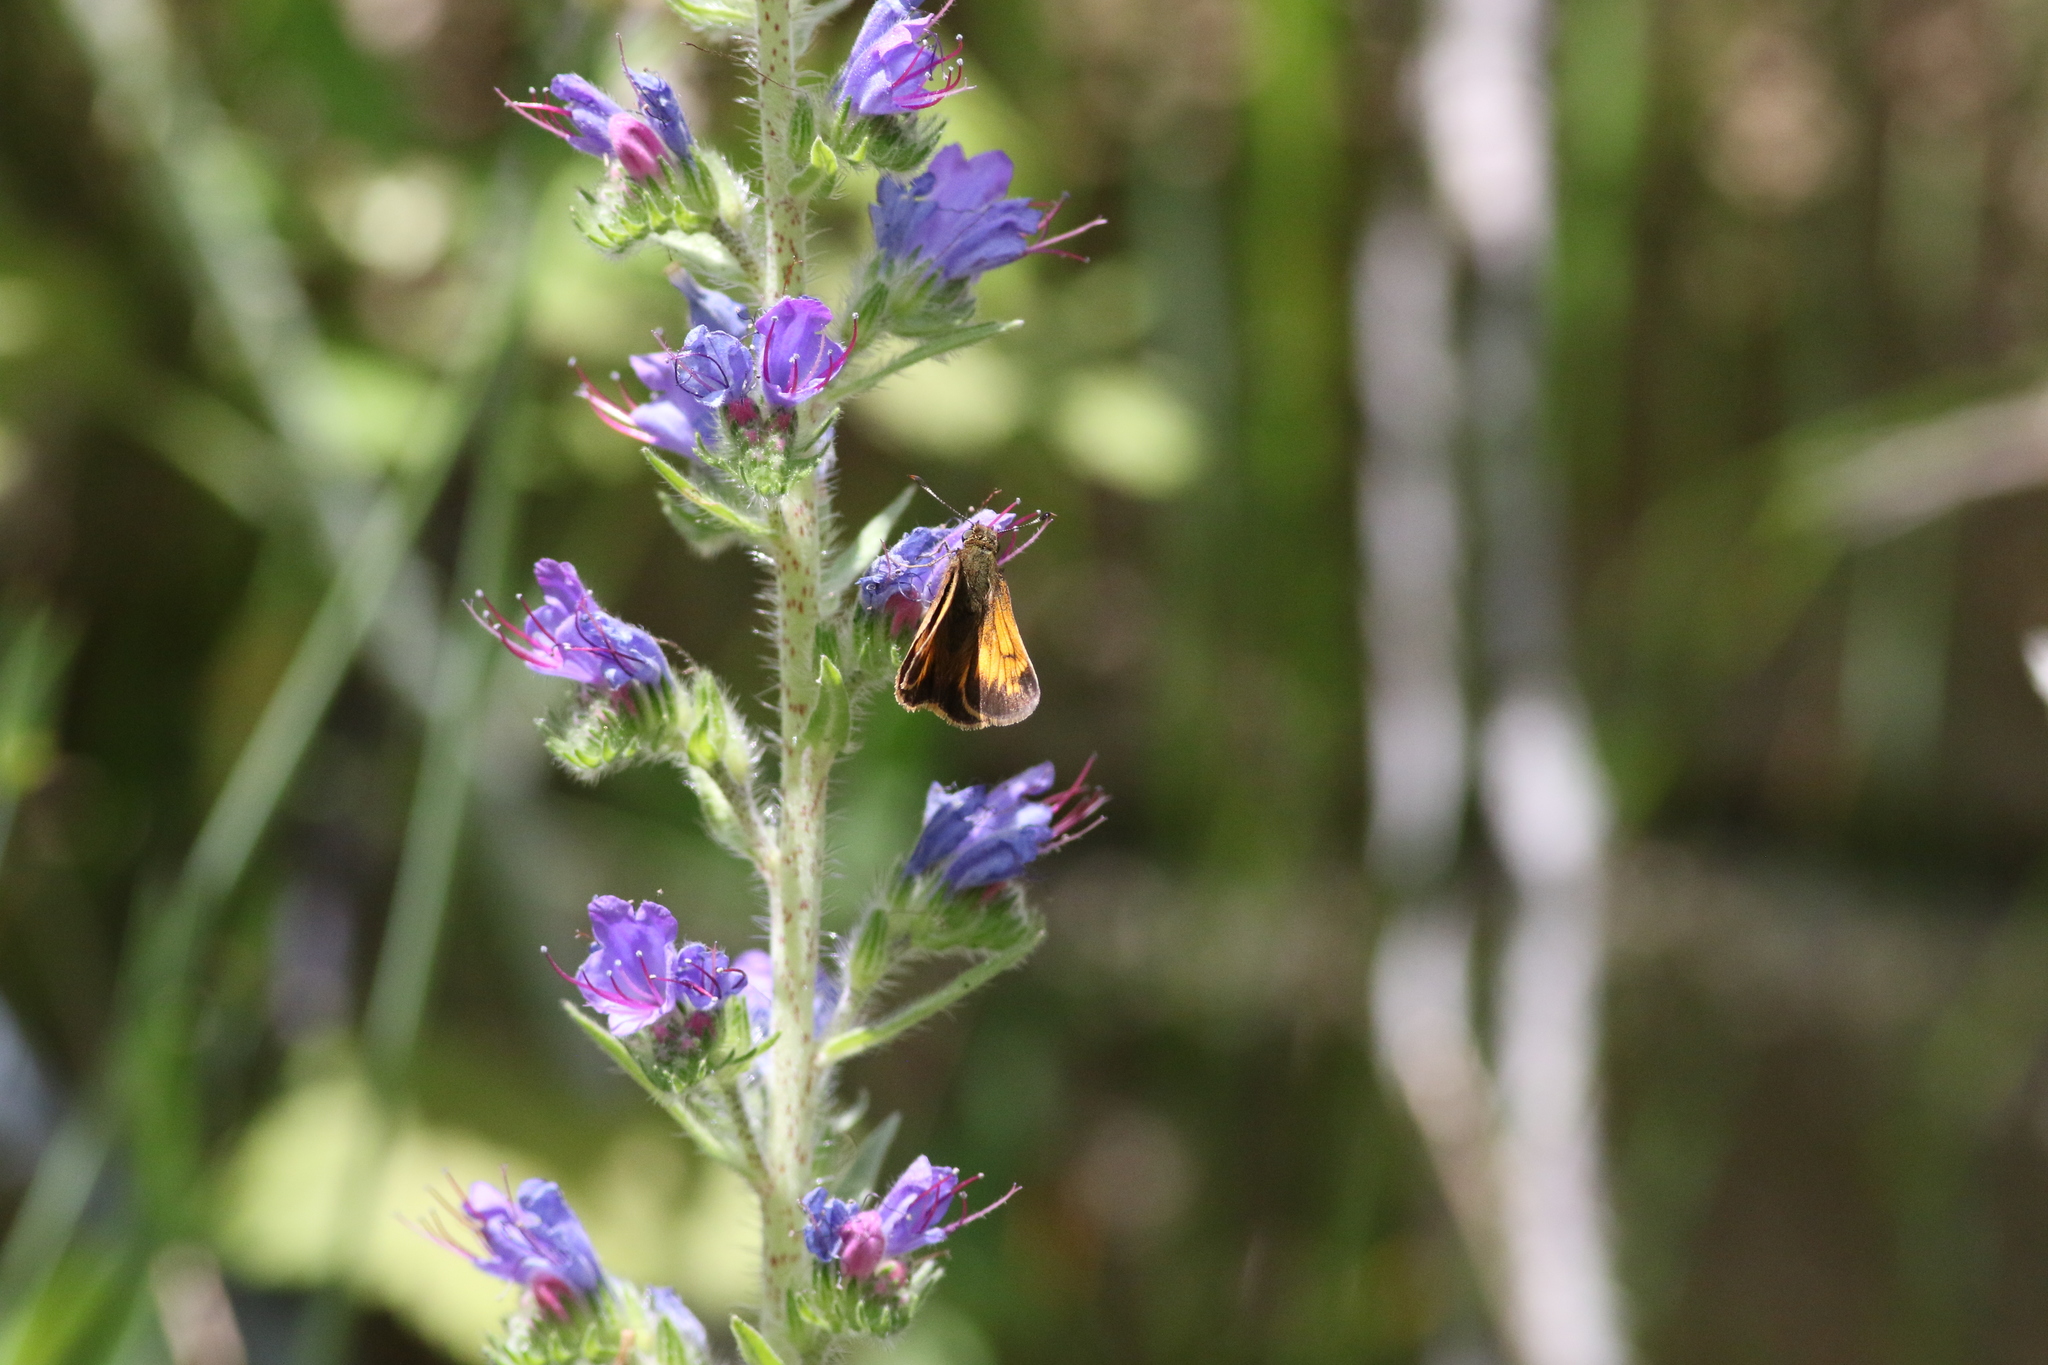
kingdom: Animalia
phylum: Arthropoda
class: Insecta
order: Lepidoptera
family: Hesperiidae
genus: Lon
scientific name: Lon hobomok
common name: Hobomok skipper
